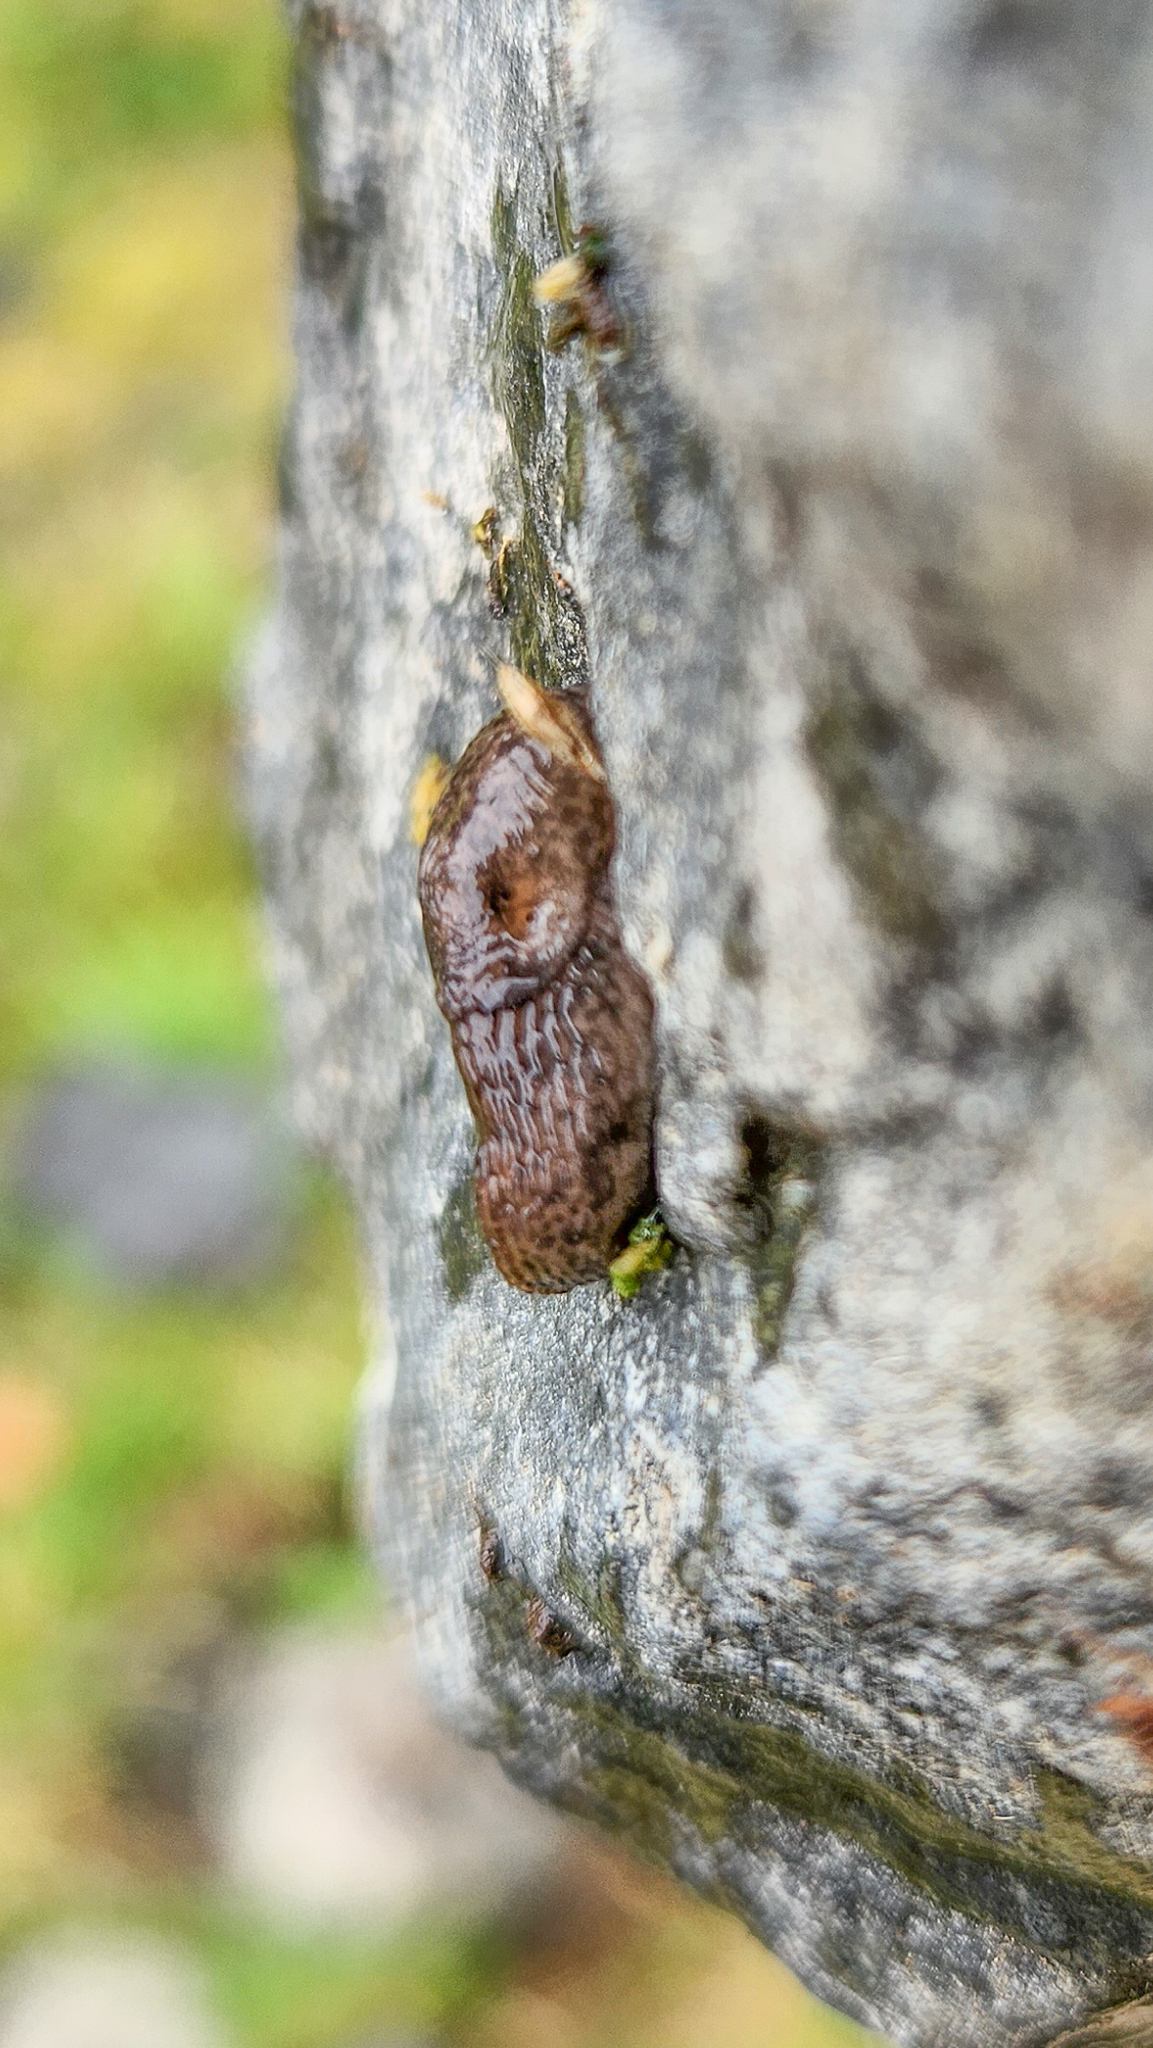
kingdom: Animalia
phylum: Mollusca
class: Gastropoda
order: Stylommatophora
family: Agriolimacidae
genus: Deroceras
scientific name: Deroceras reticulatum
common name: Gray field slug
